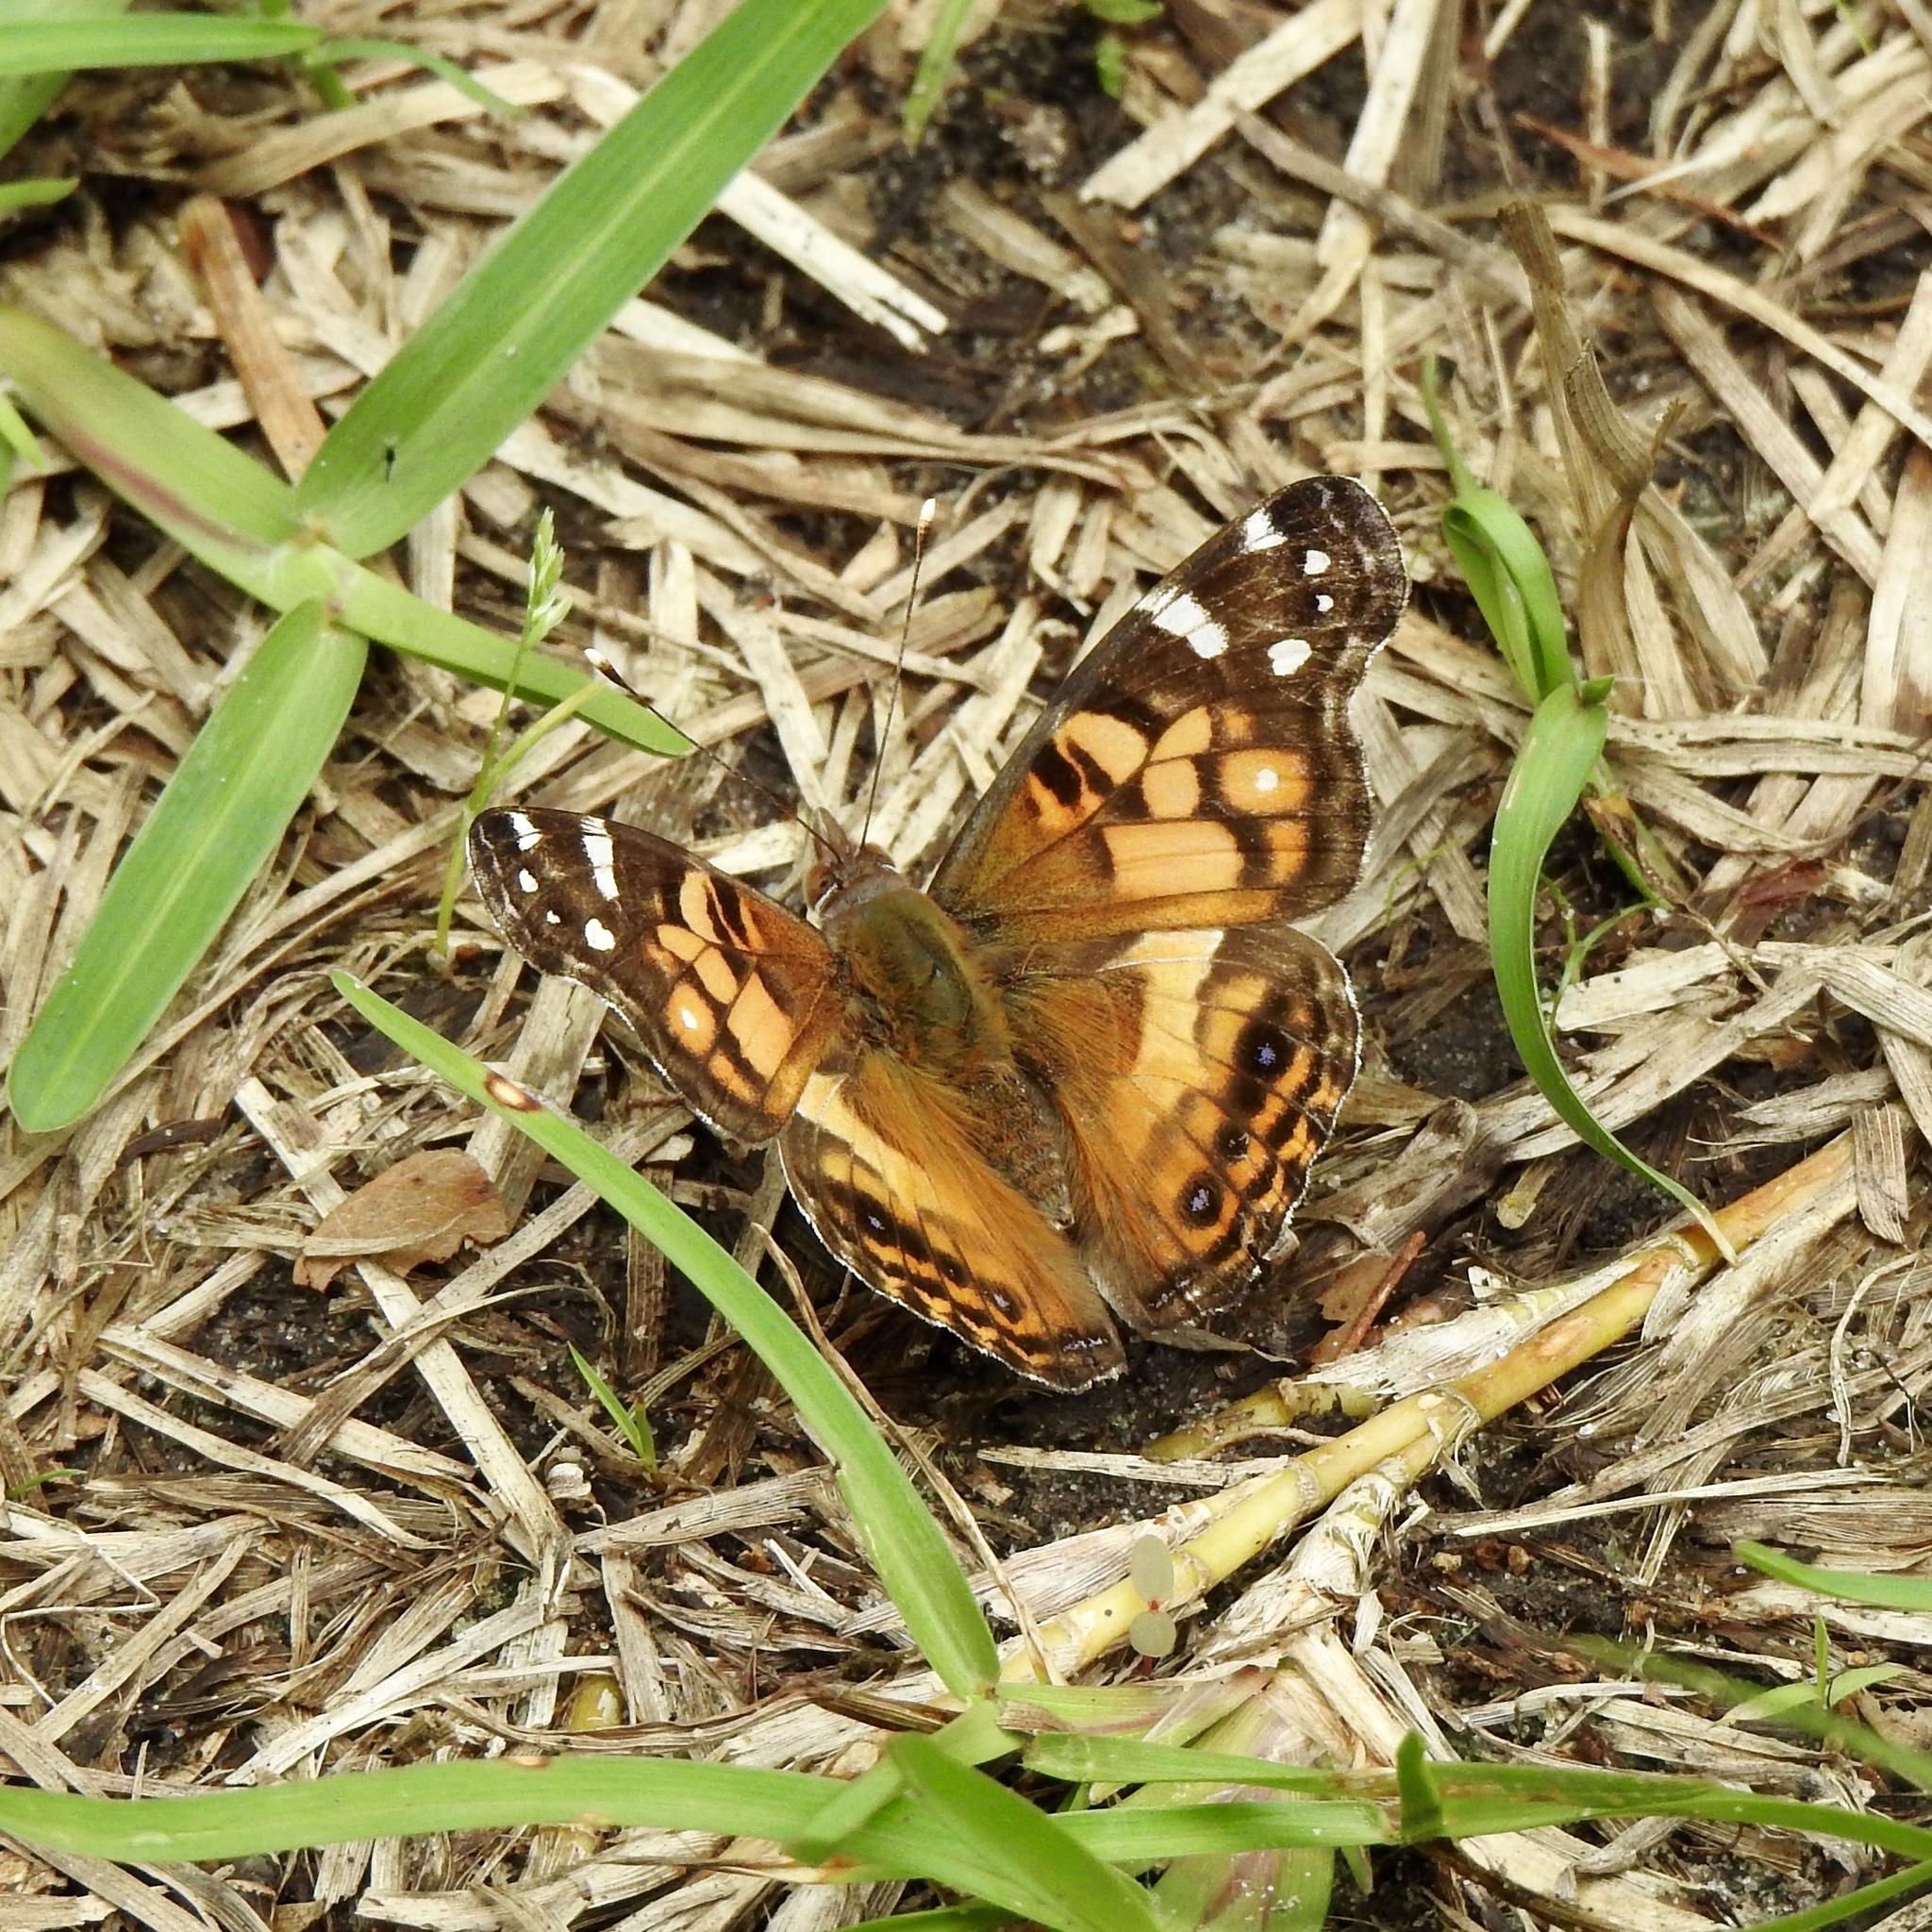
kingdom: Animalia
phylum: Arthropoda
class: Insecta
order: Lepidoptera
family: Nymphalidae
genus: Vanessa
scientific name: Vanessa virginiensis
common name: American lady
